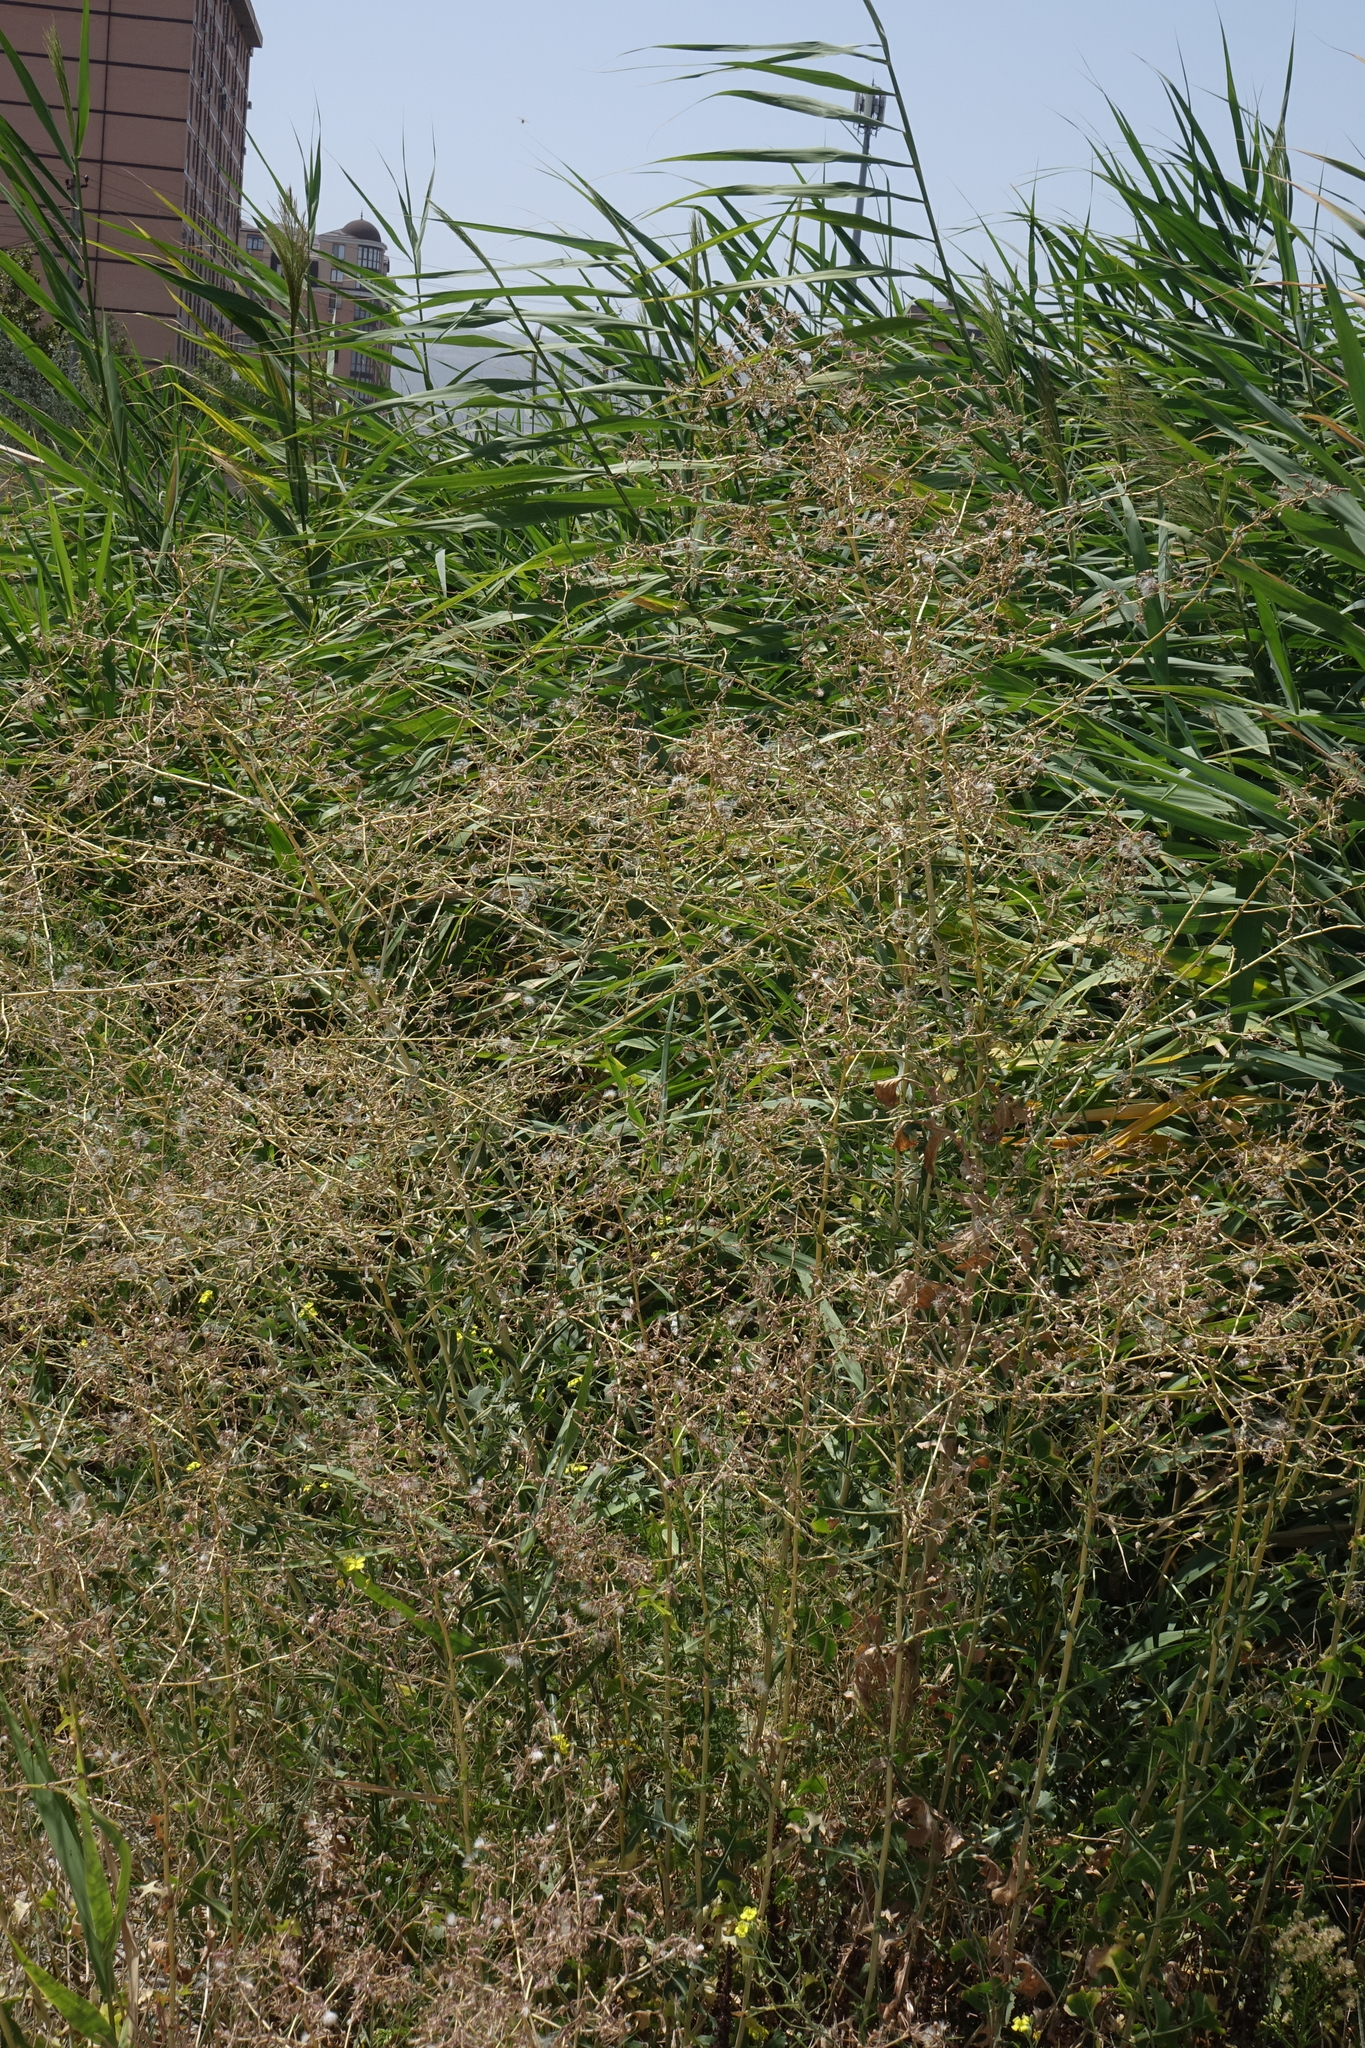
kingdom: Plantae
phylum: Tracheophyta
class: Magnoliopsida
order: Asterales
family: Asteraceae
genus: Lactuca
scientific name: Lactuca serriola
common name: Prickly lettuce
